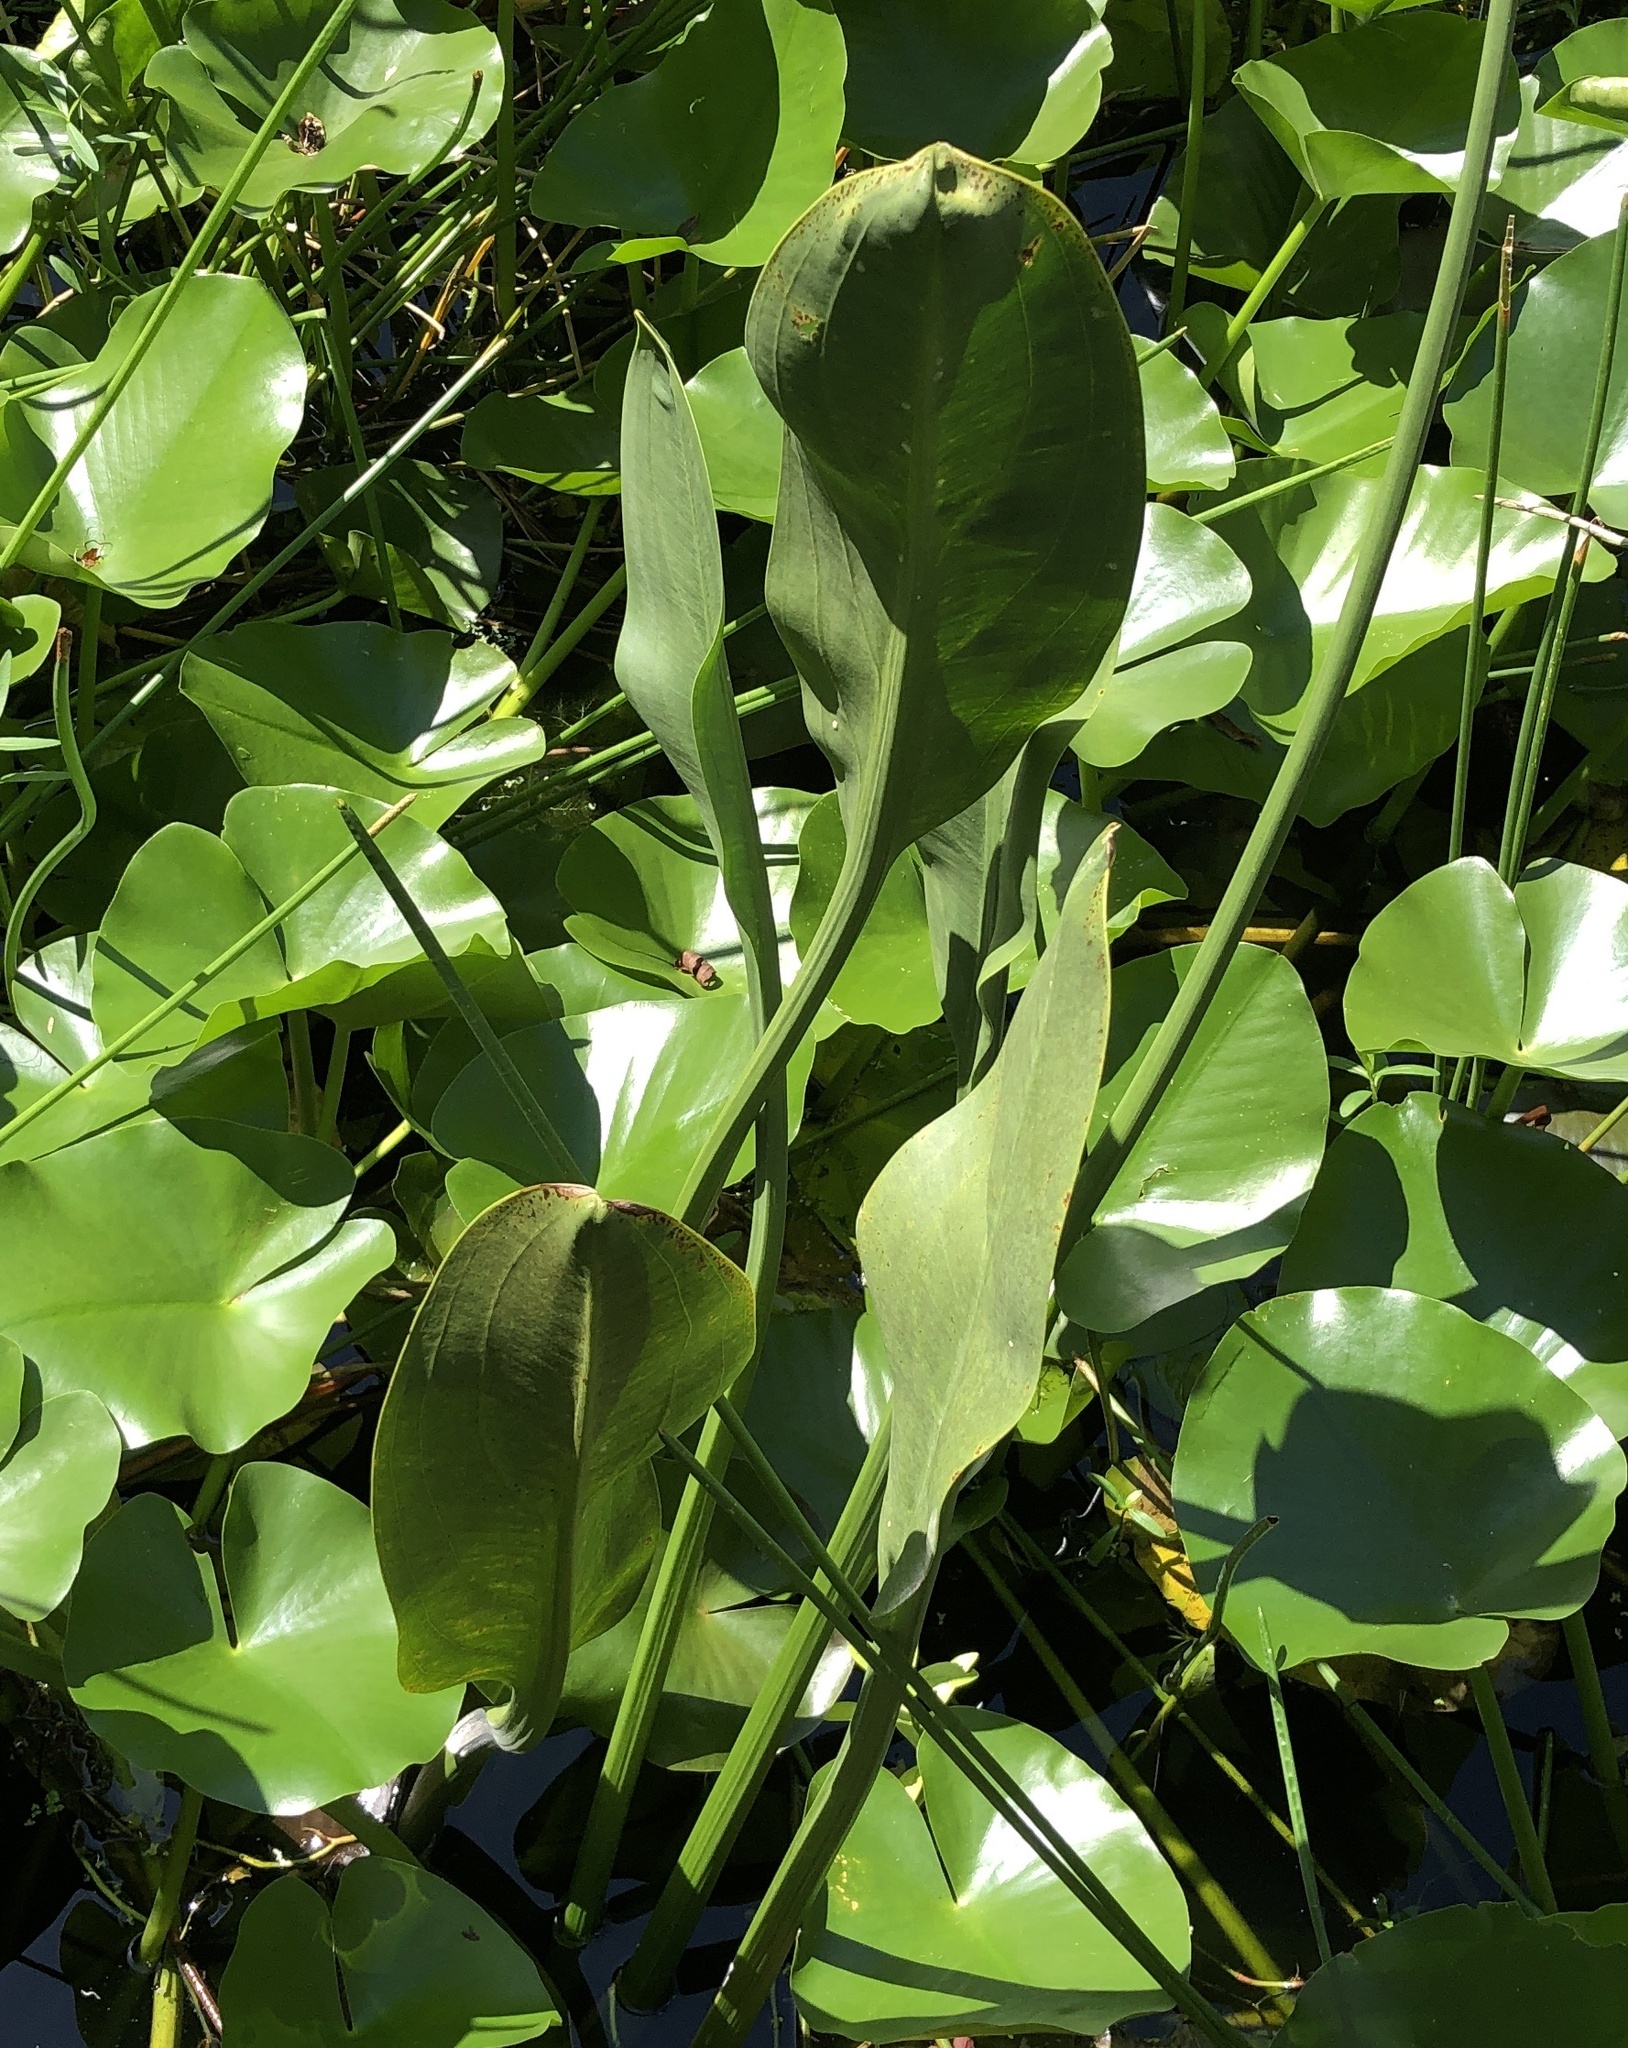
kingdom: Plantae
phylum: Tracheophyta
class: Liliopsida
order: Alismatales
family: Alismataceae
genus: Sagittaria
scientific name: Sagittaria lancifolia
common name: Lance-leaf arrowhead
